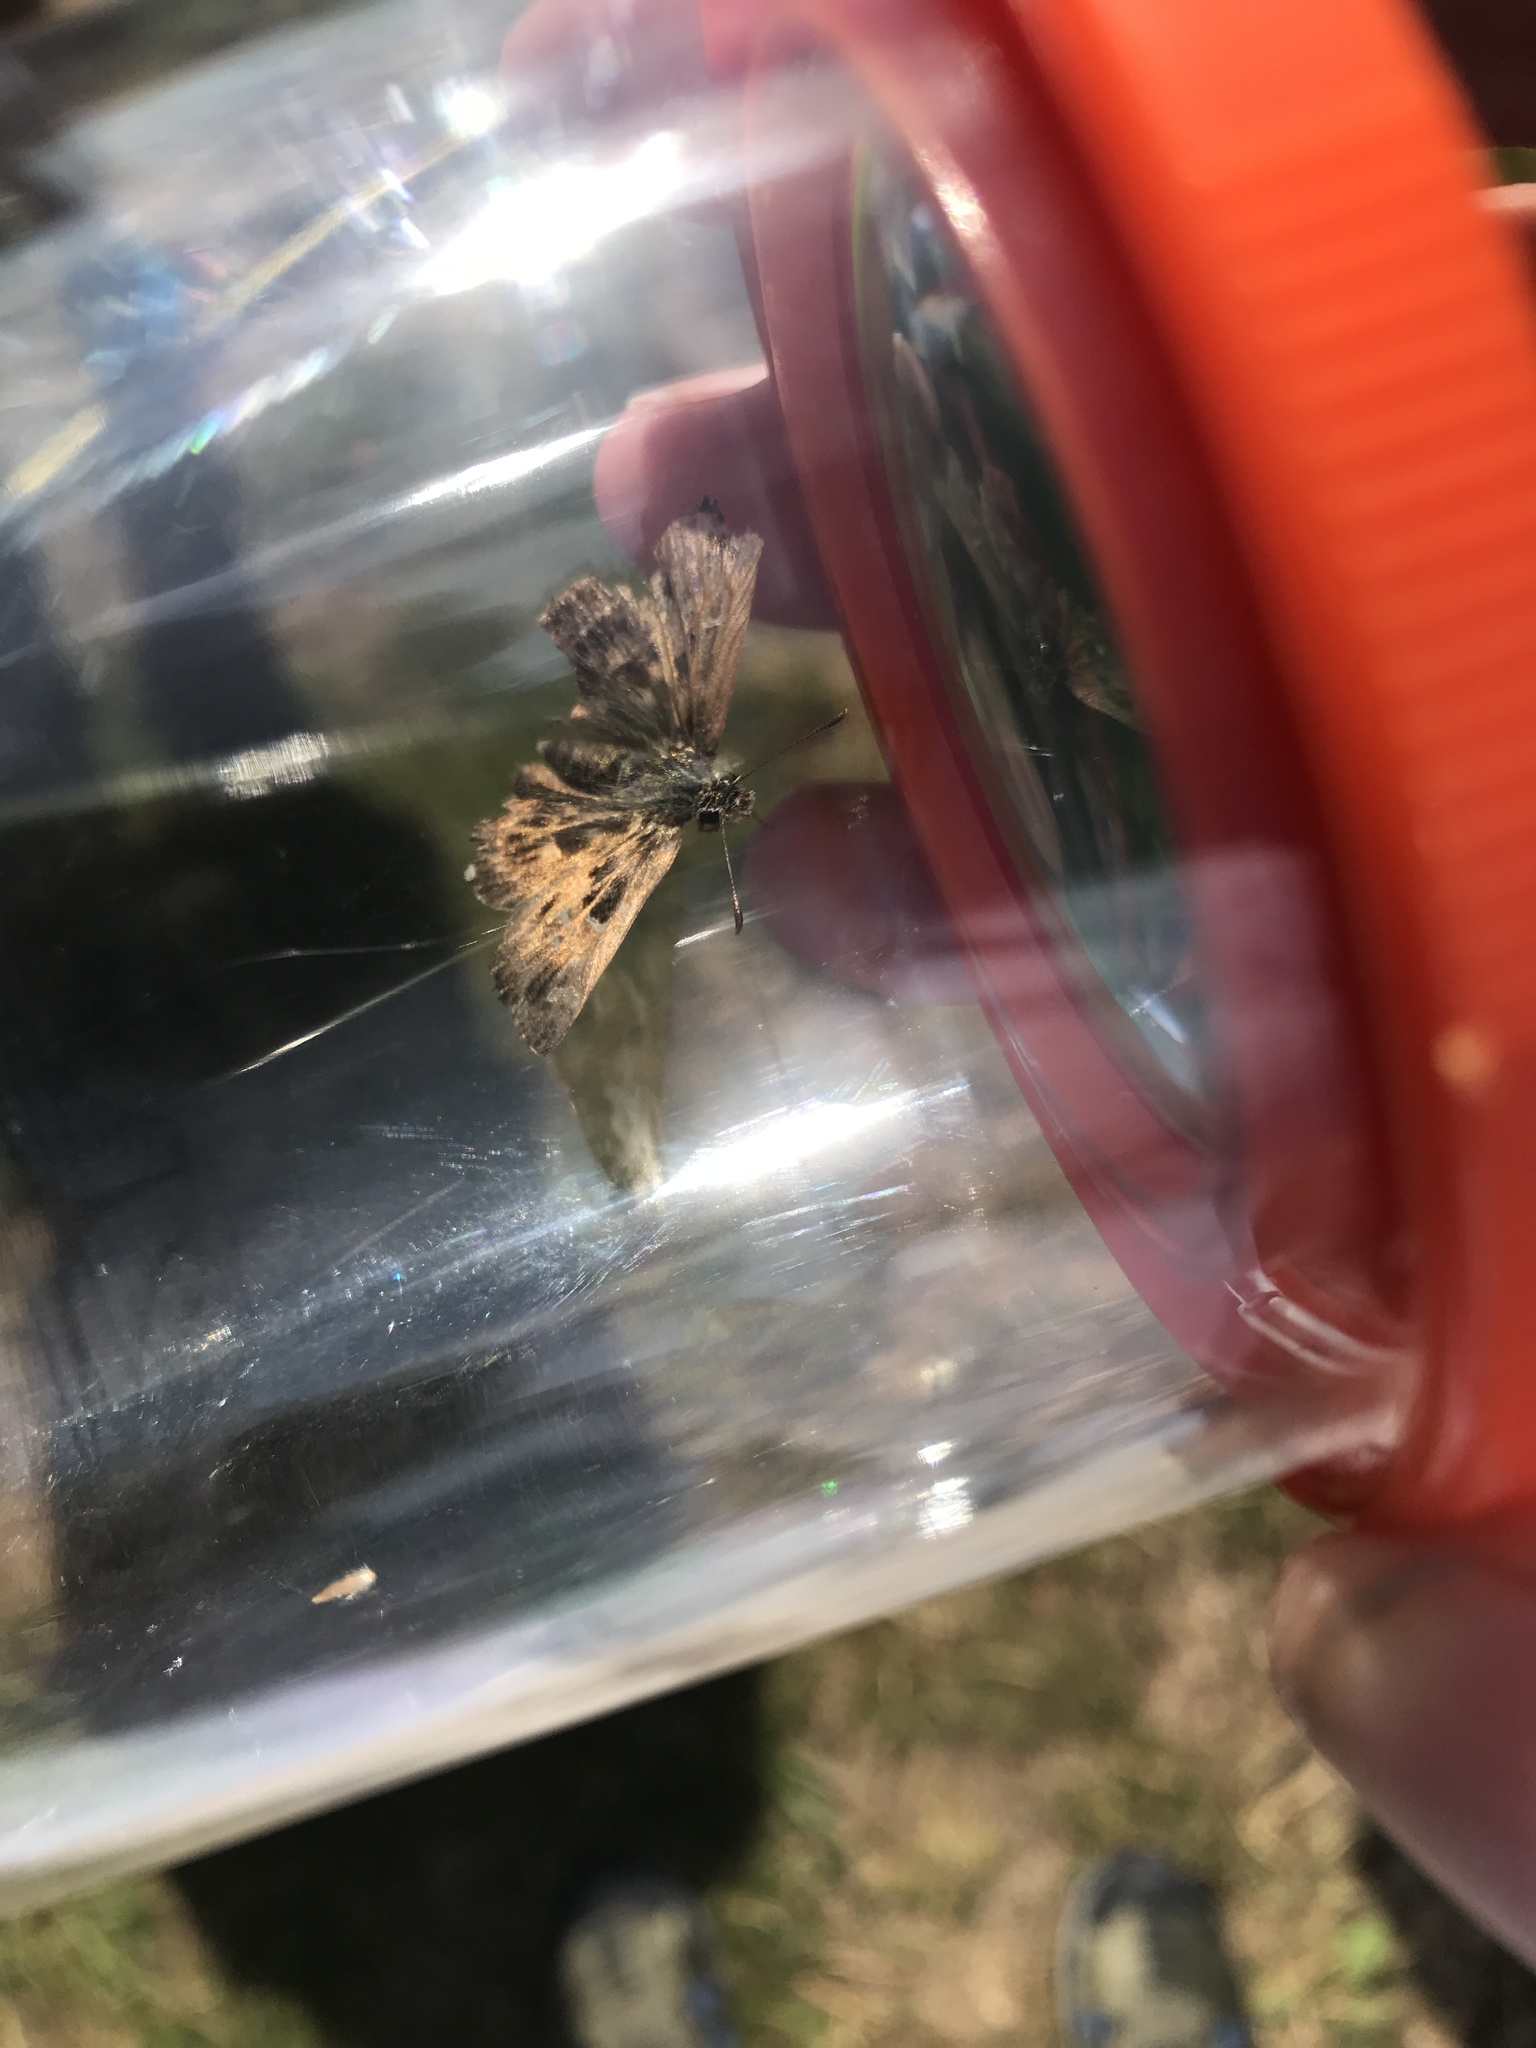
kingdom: Animalia
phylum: Arthropoda
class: Insecta
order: Lepidoptera
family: Hesperiidae
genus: Carcharodus
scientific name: Carcharodus alceae
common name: Mallow skipper
